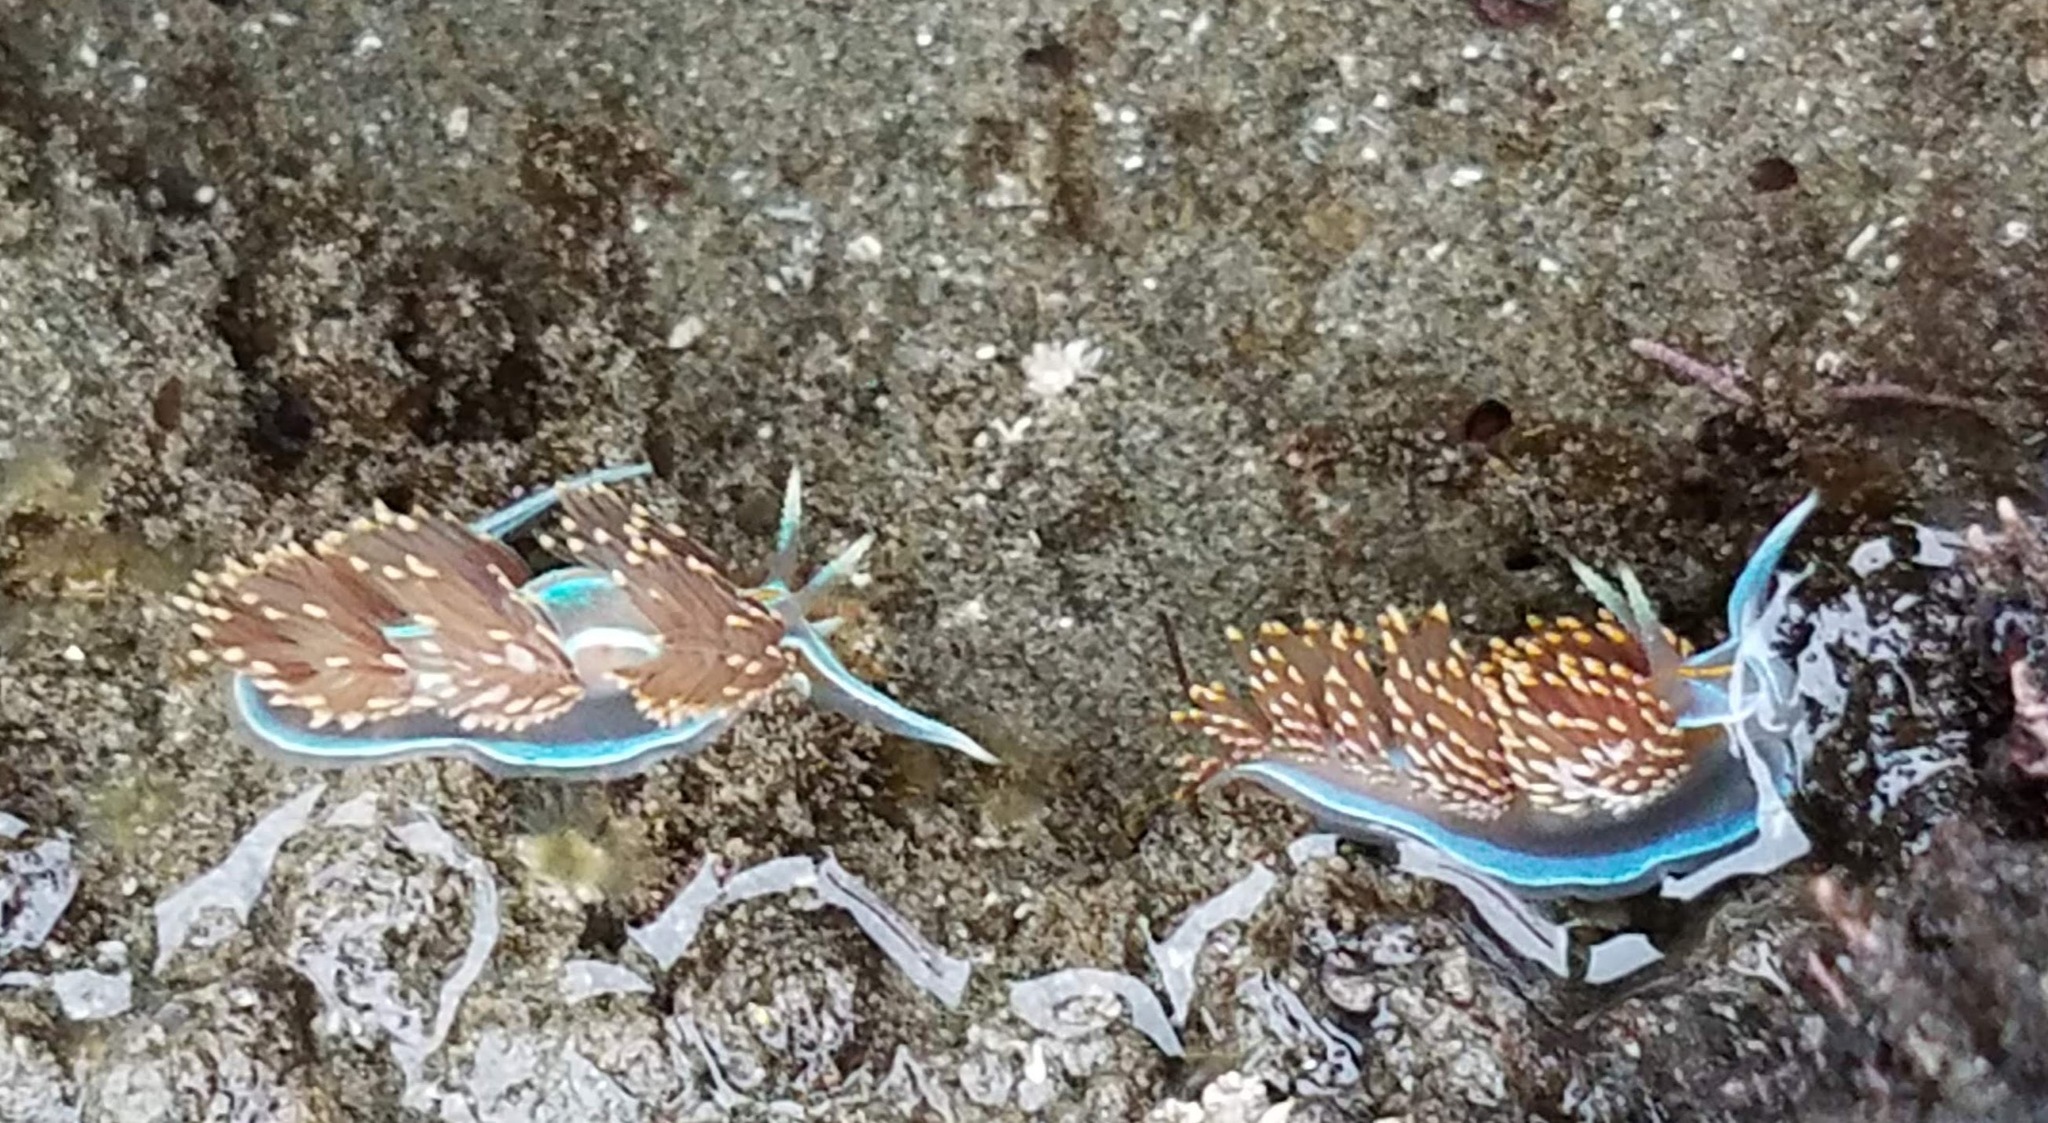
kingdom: Animalia
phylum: Mollusca
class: Gastropoda
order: Nudibranchia
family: Myrrhinidae
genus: Hermissenda
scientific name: Hermissenda opalescens
